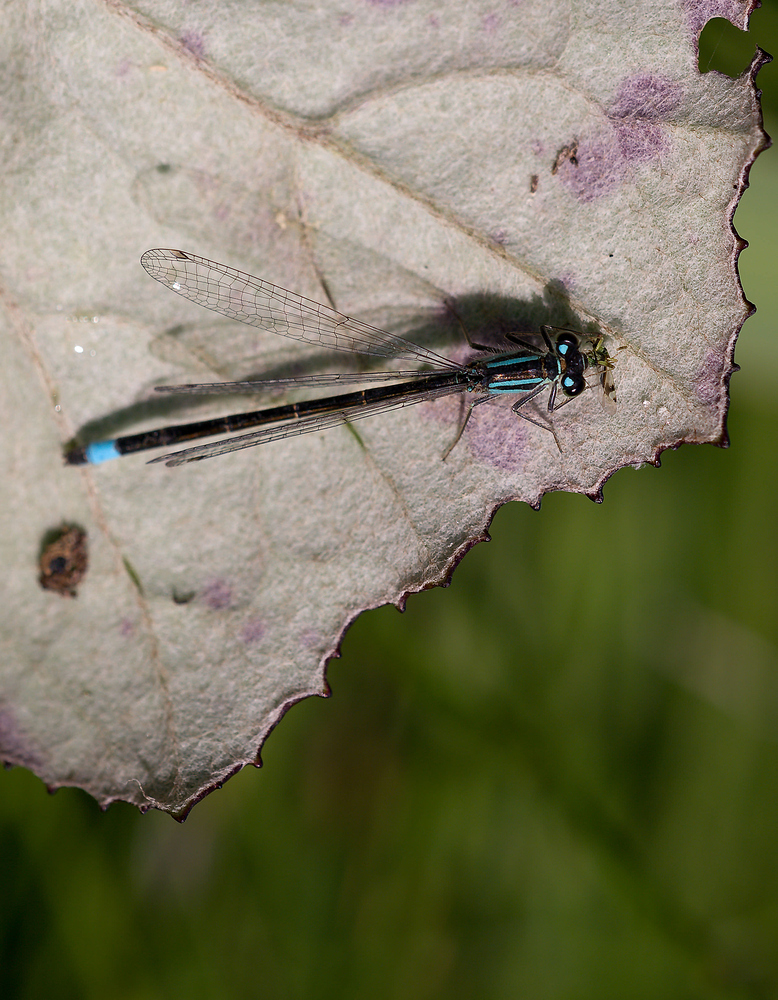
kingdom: Animalia
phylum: Arthropoda
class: Insecta
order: Odonata
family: Coenagrionidae
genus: Ischnura
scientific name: Ischnura elegans
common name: Blue-tailed damselfly
